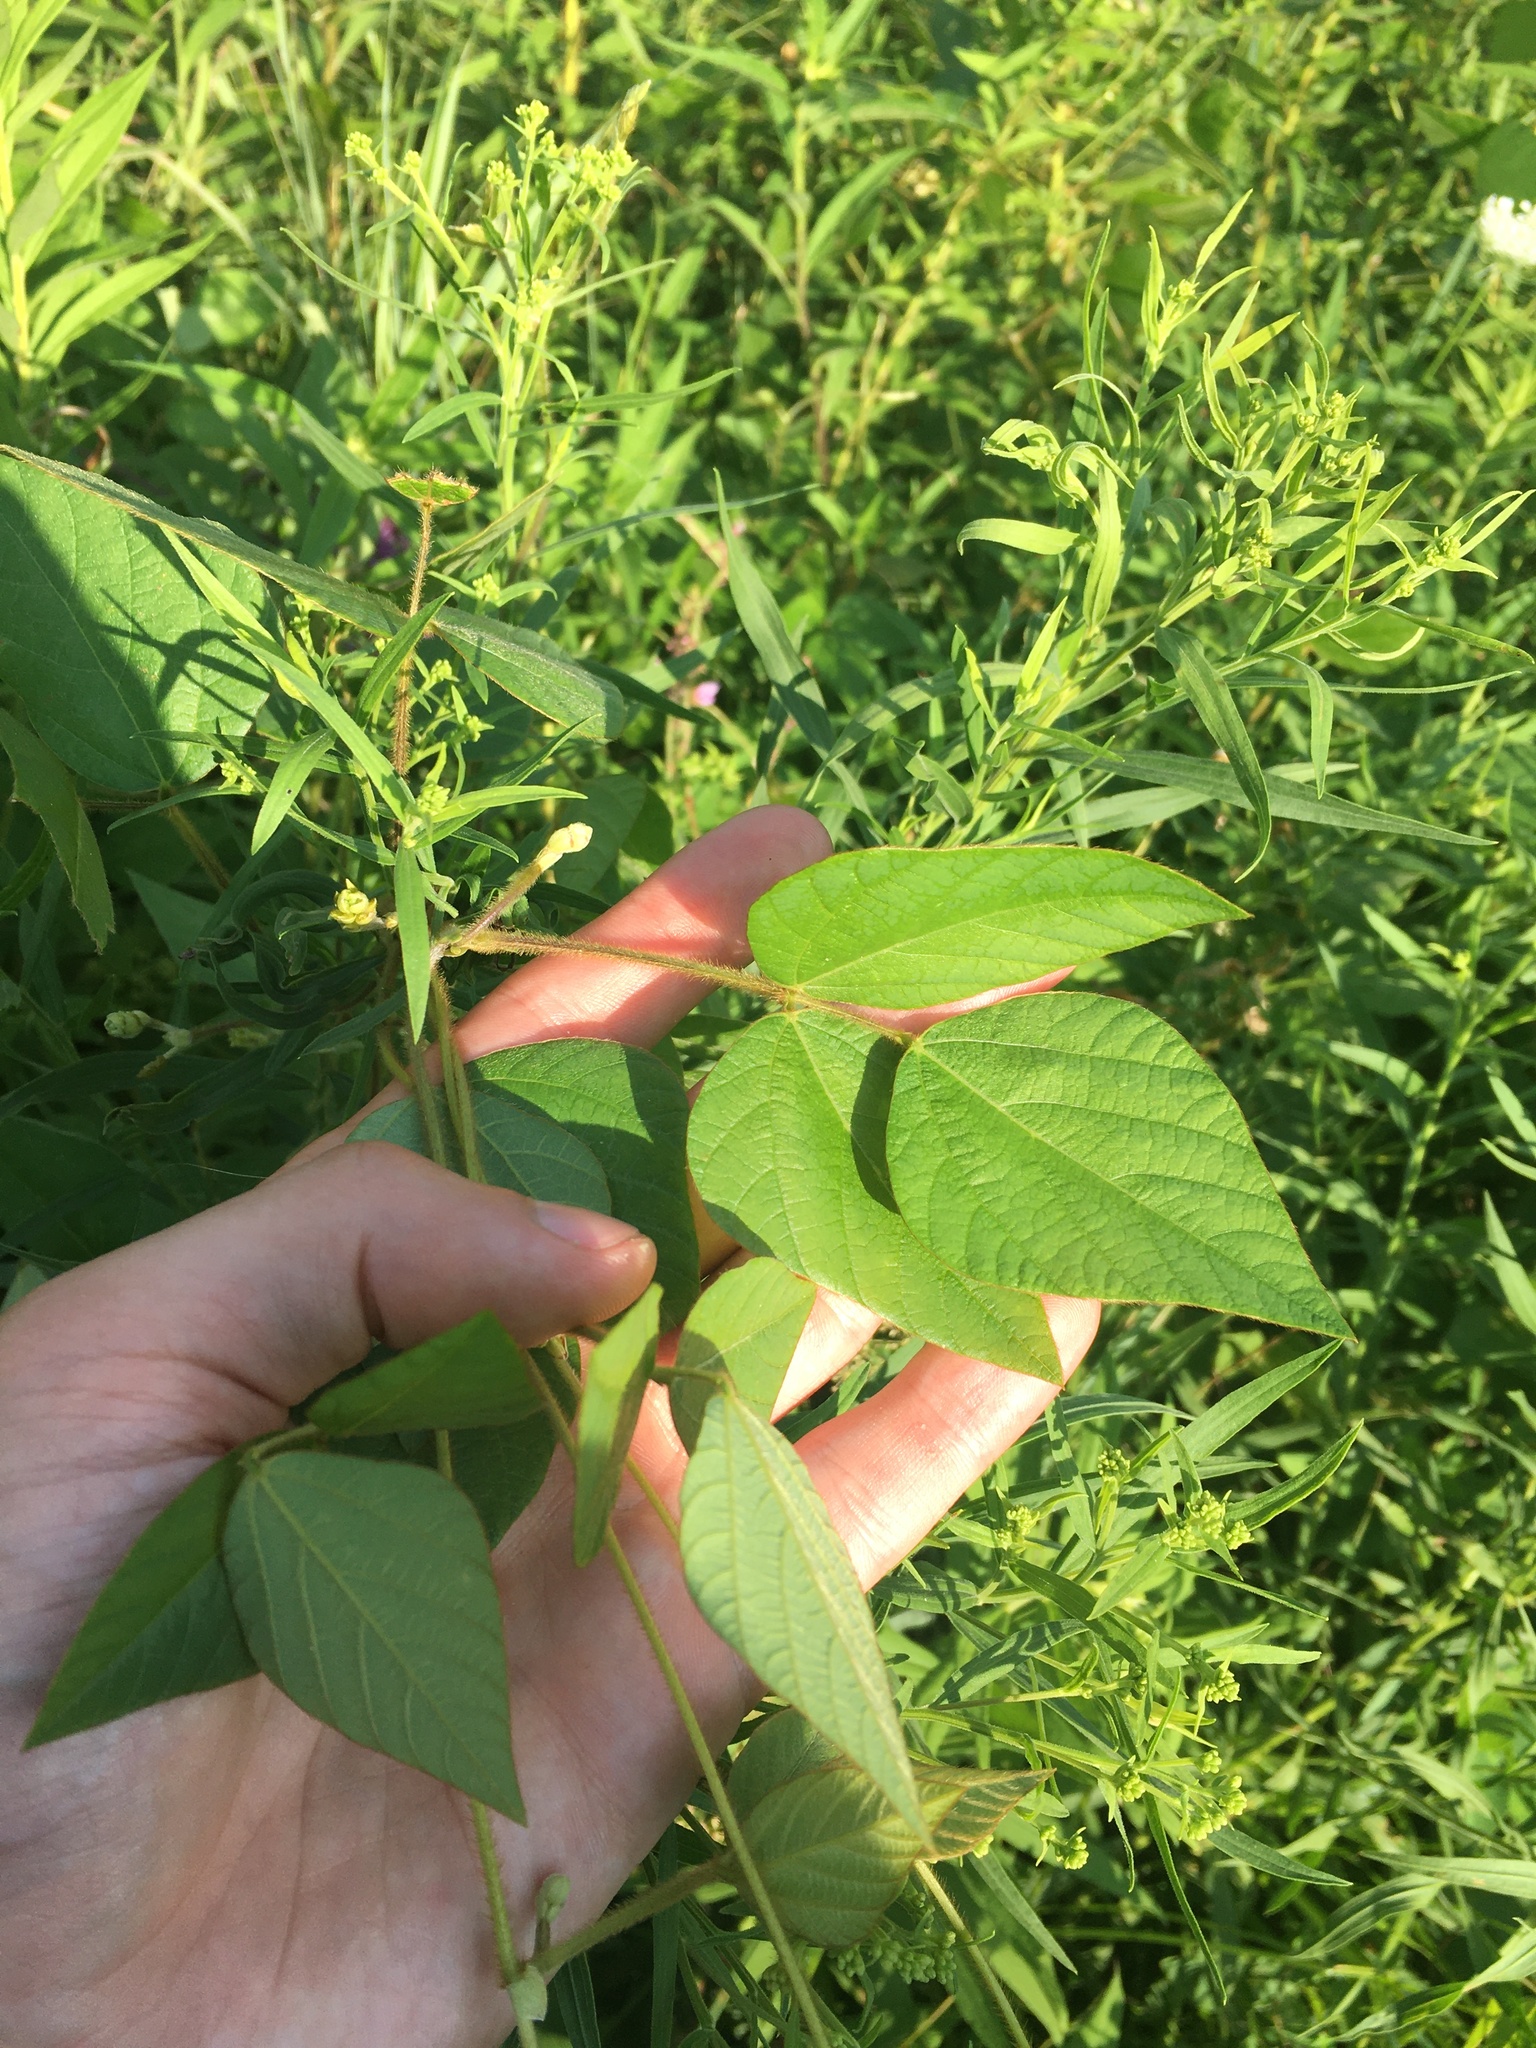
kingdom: Plantae
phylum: Tracheophyta
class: Magnoliopsida
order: Fabales
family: Fabaceae
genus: Amphicarpaea
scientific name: Amphicarpaea bracteata
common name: American hog peanut
